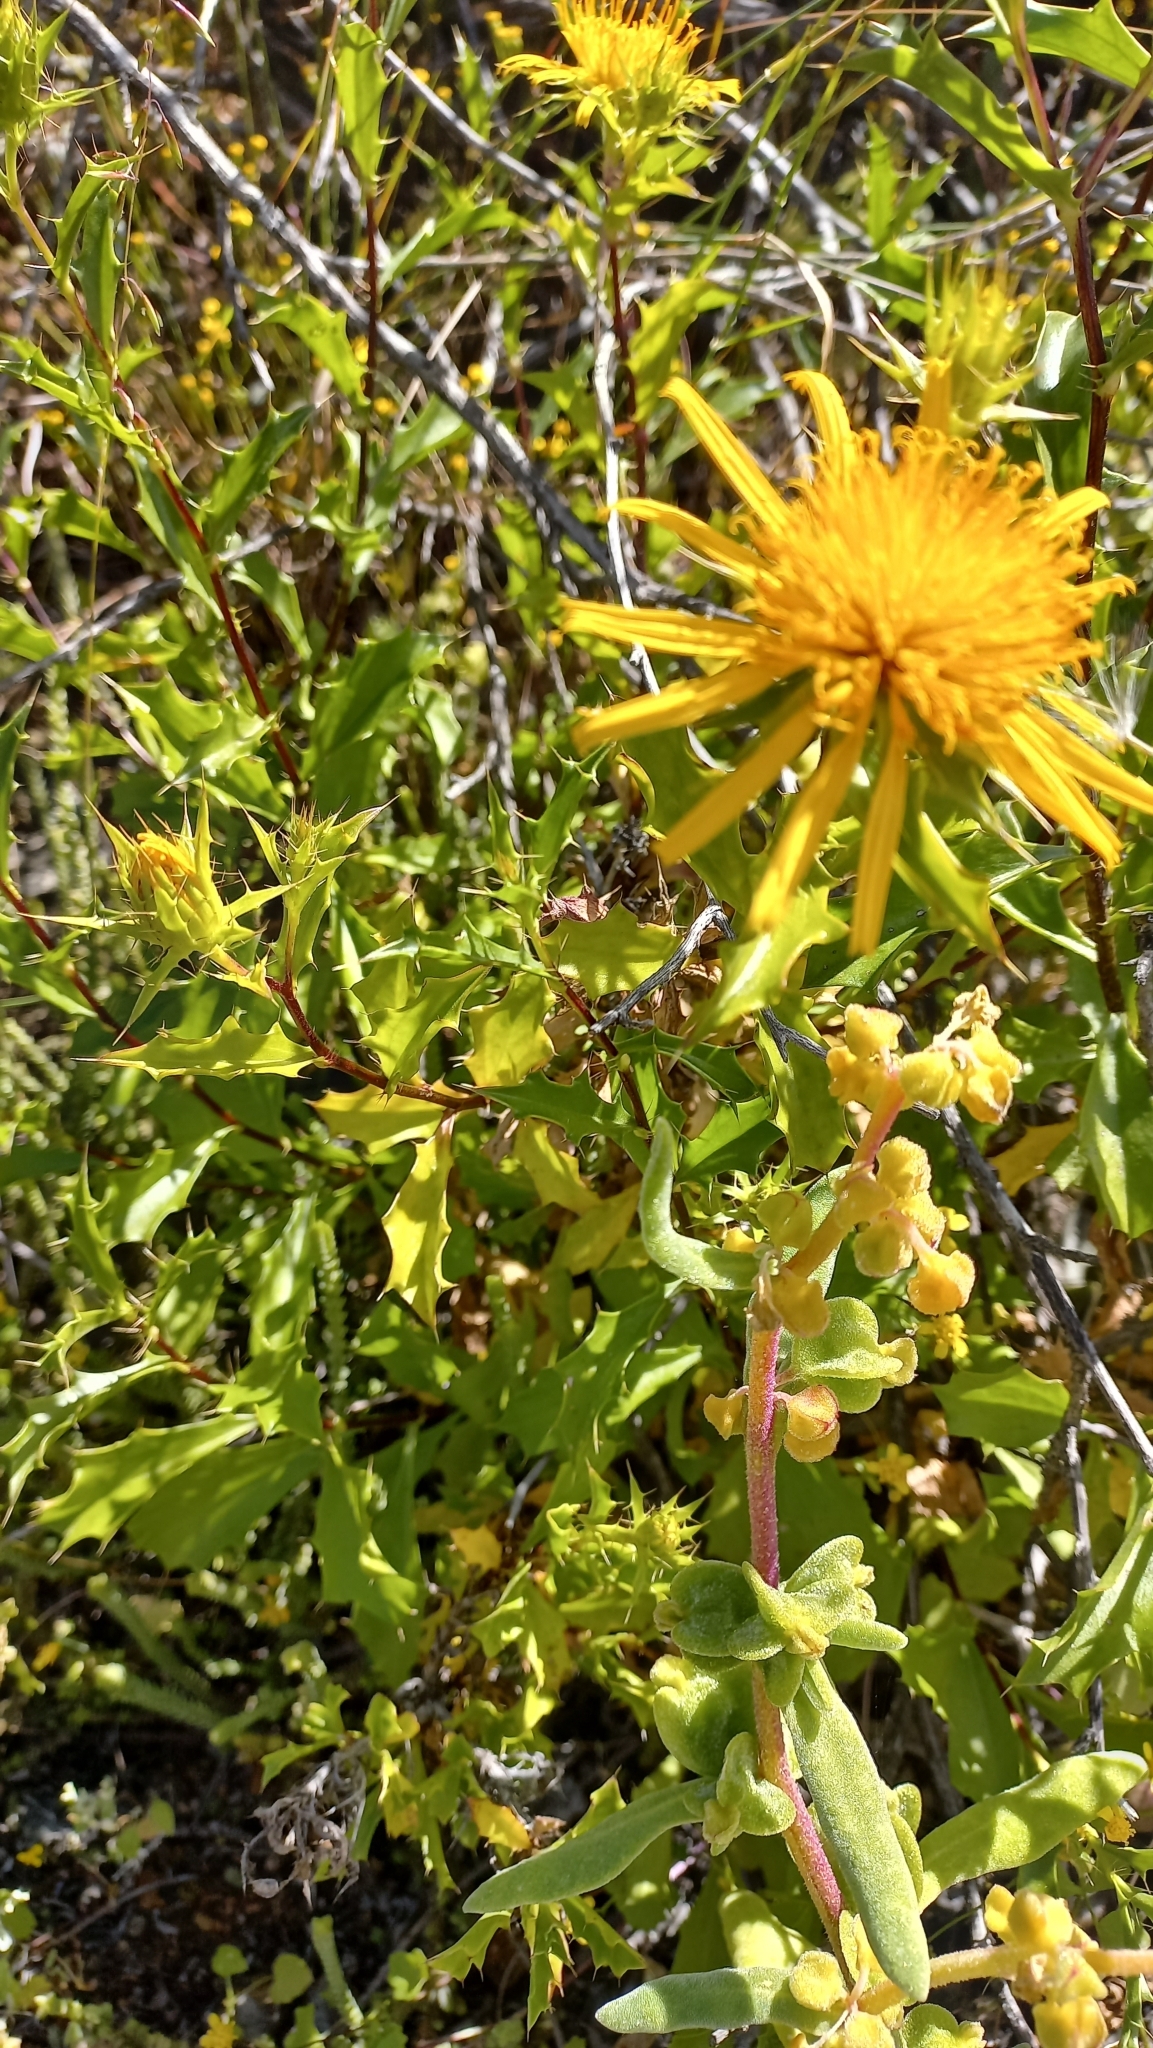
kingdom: Plantae
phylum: Tracheophyta
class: Magnoliopsida
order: Asterales
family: Asteraceae
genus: Berkheya
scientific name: Berkheya spinosa
